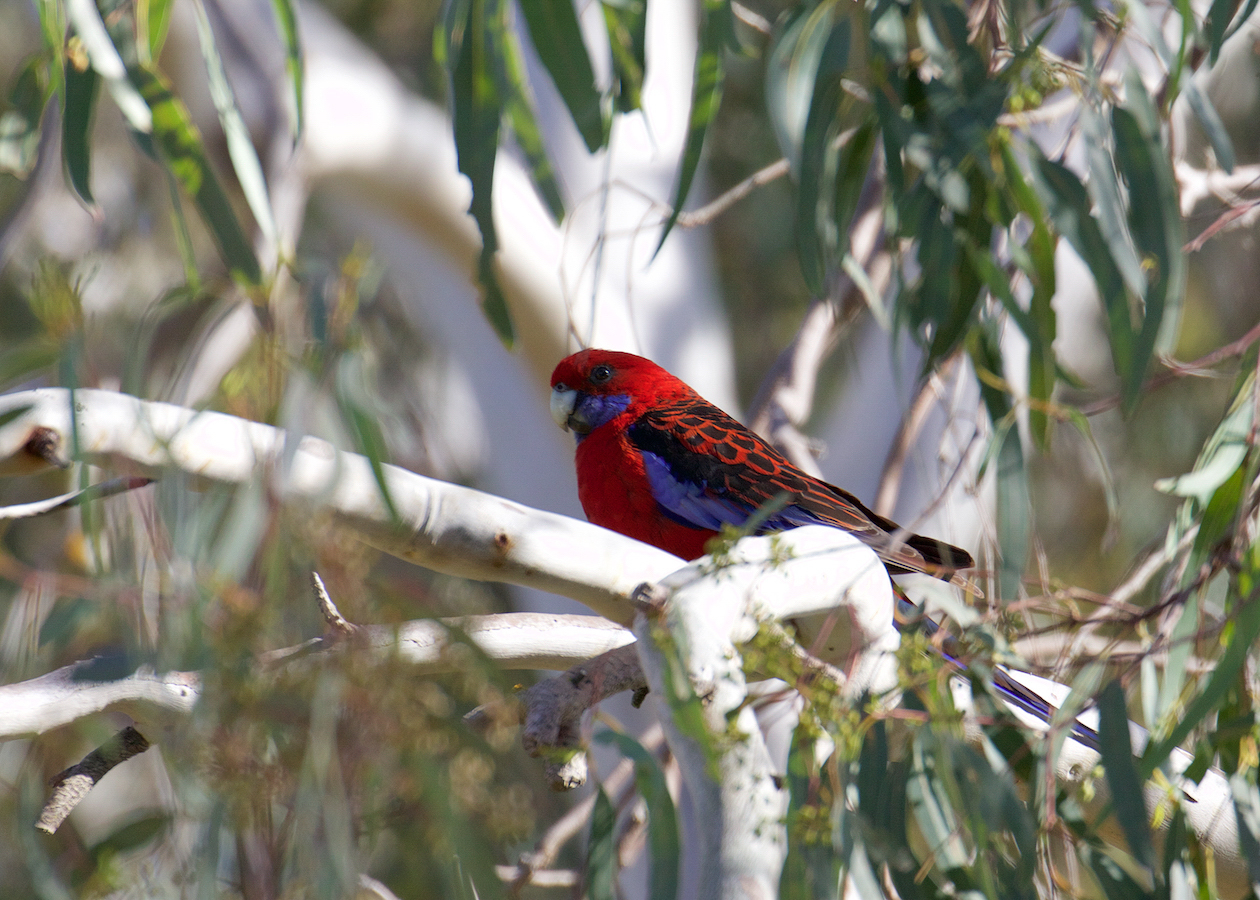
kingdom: Animalia
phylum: Chordata
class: Aves
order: Psittaciformes
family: Psittacidae
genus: Platycercus
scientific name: Platycercus elegans
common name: Crimson rosella
